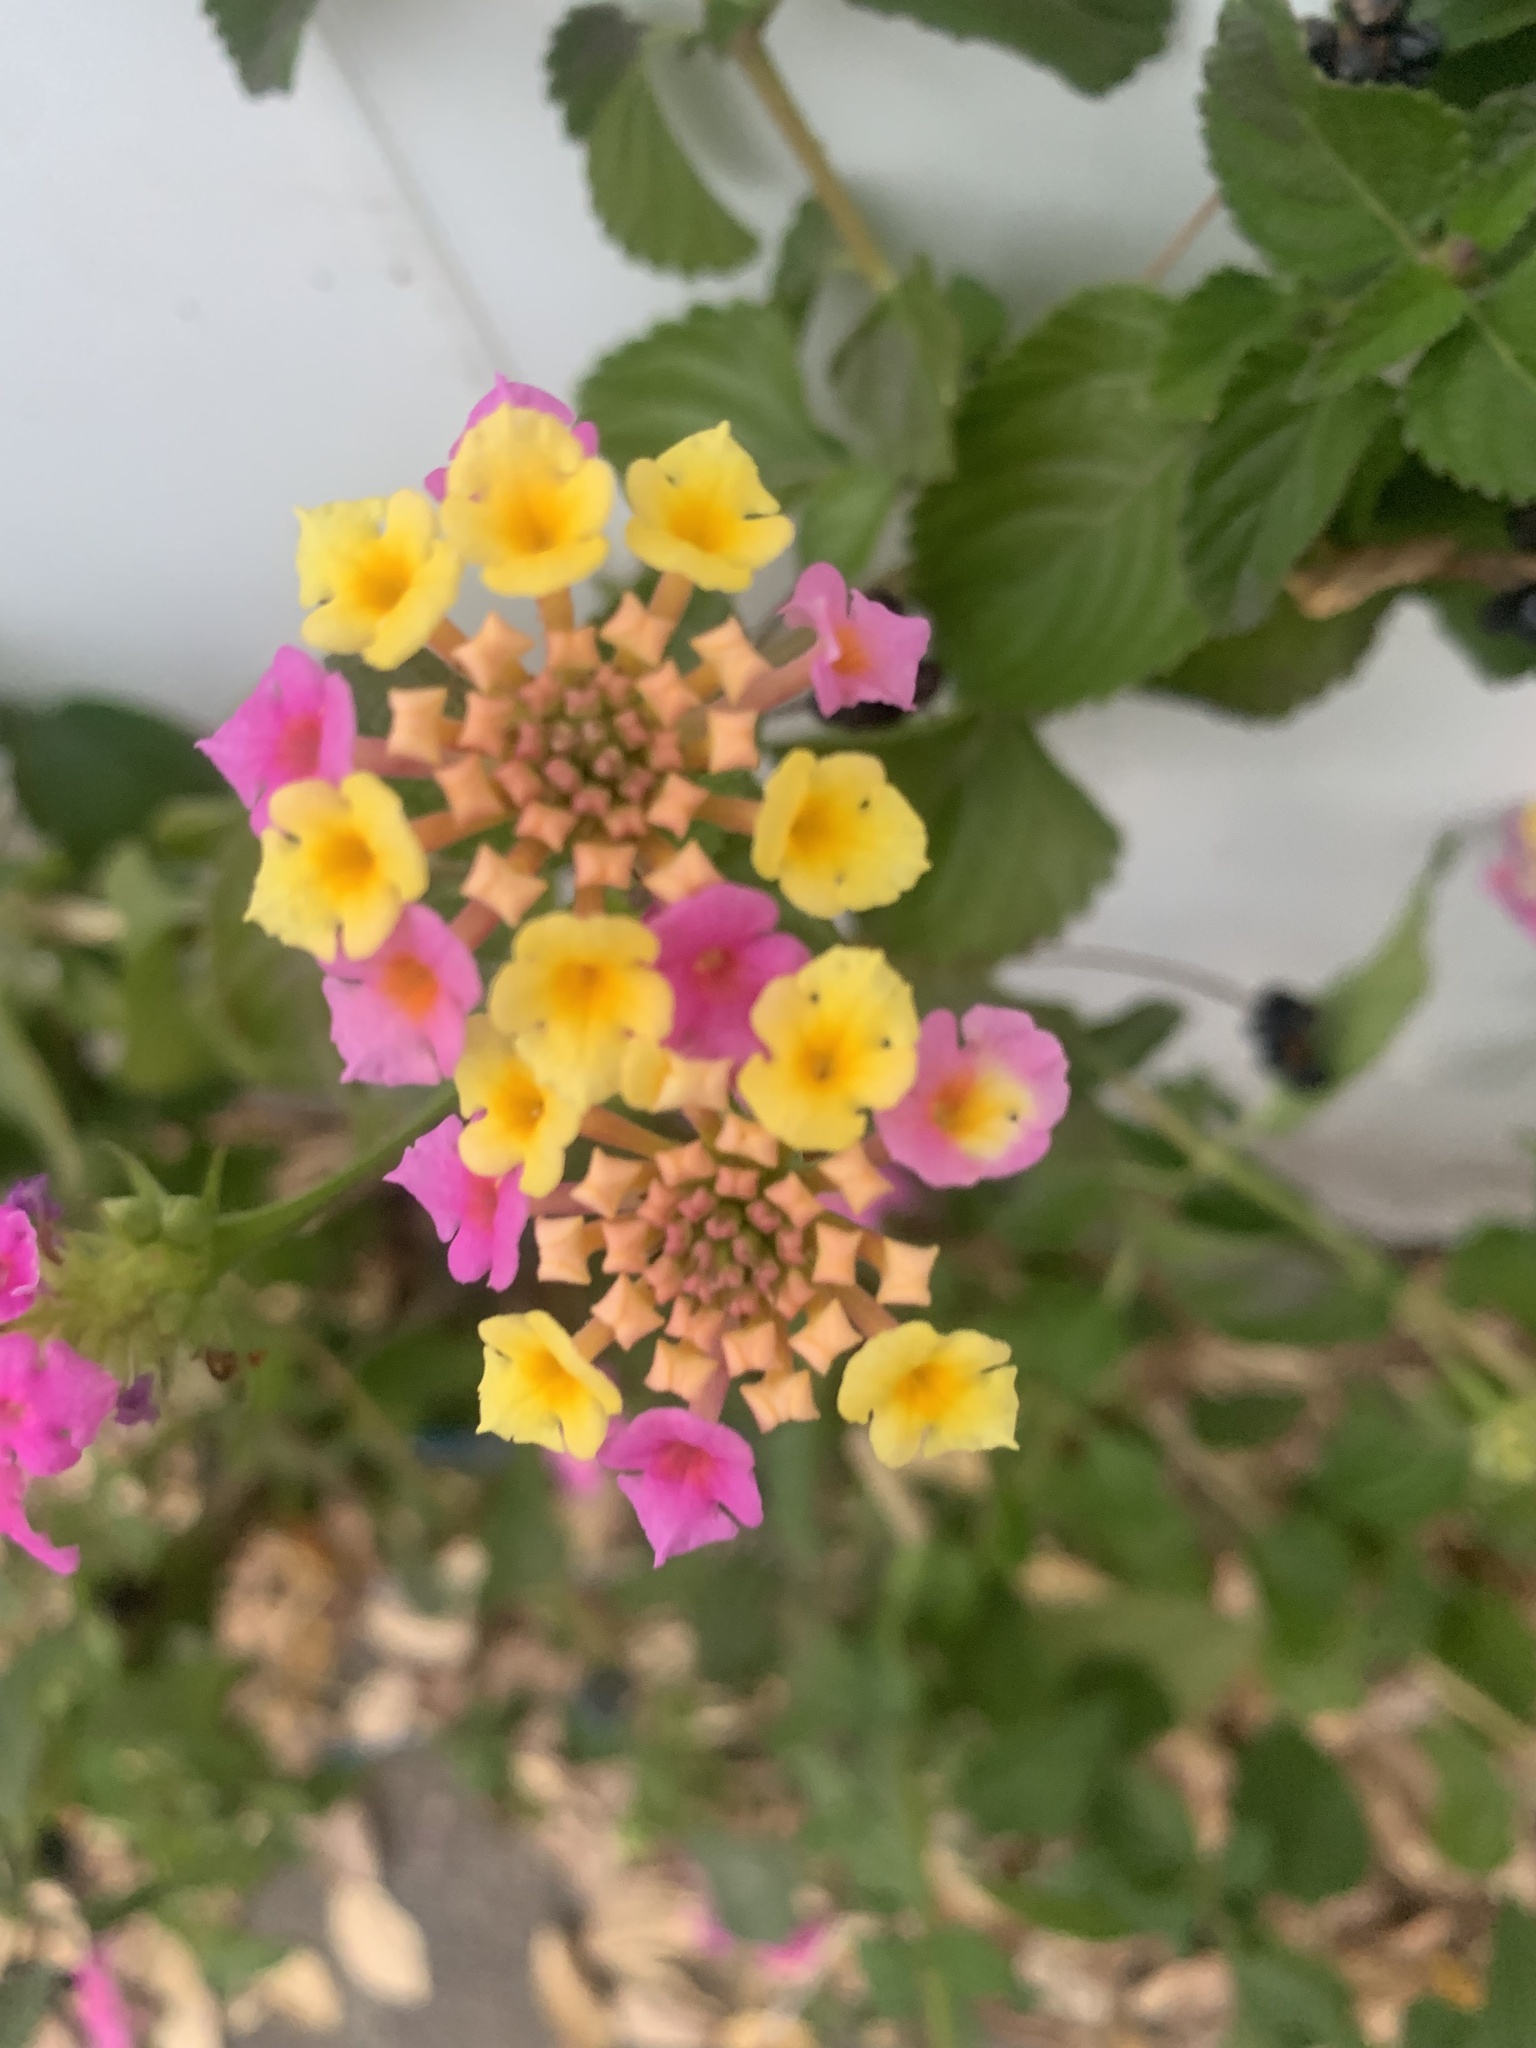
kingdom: Plantae
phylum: Tracheophyta
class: Magnoliopsida
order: Lamiales
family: Verbenaceae
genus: Lantana
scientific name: Lantana camara
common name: Lantana
